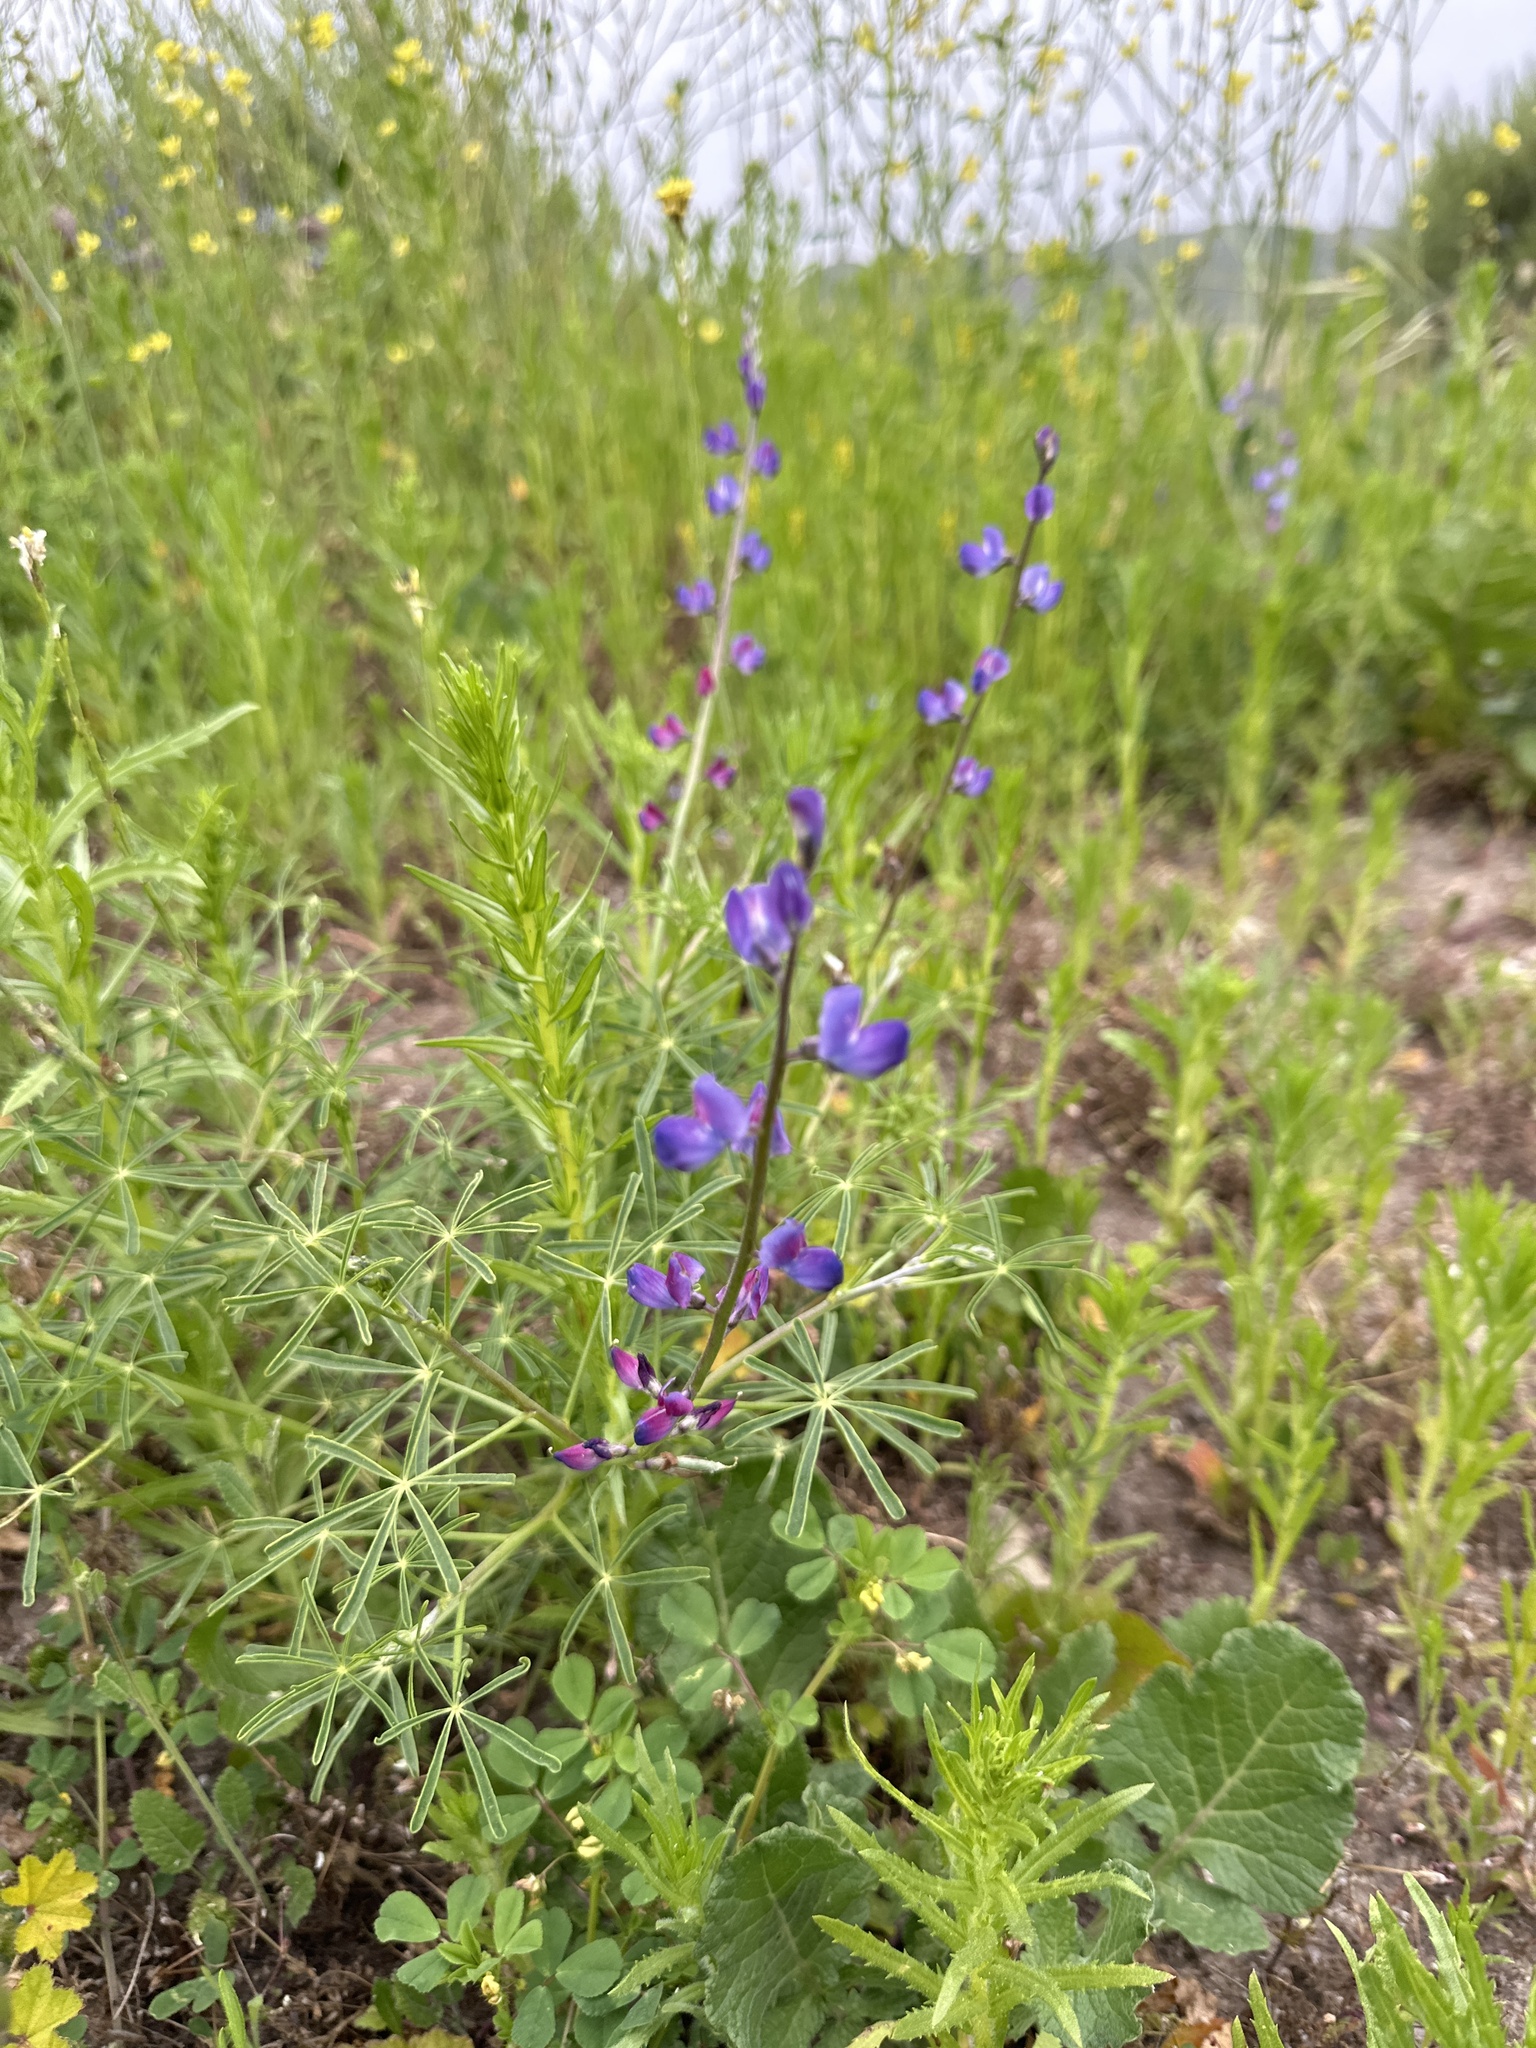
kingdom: Plantae
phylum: Tracheophyta
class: Magnoliopsida
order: Fabales
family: Fabaceae
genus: Lupinus
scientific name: Lupinus truncatus
